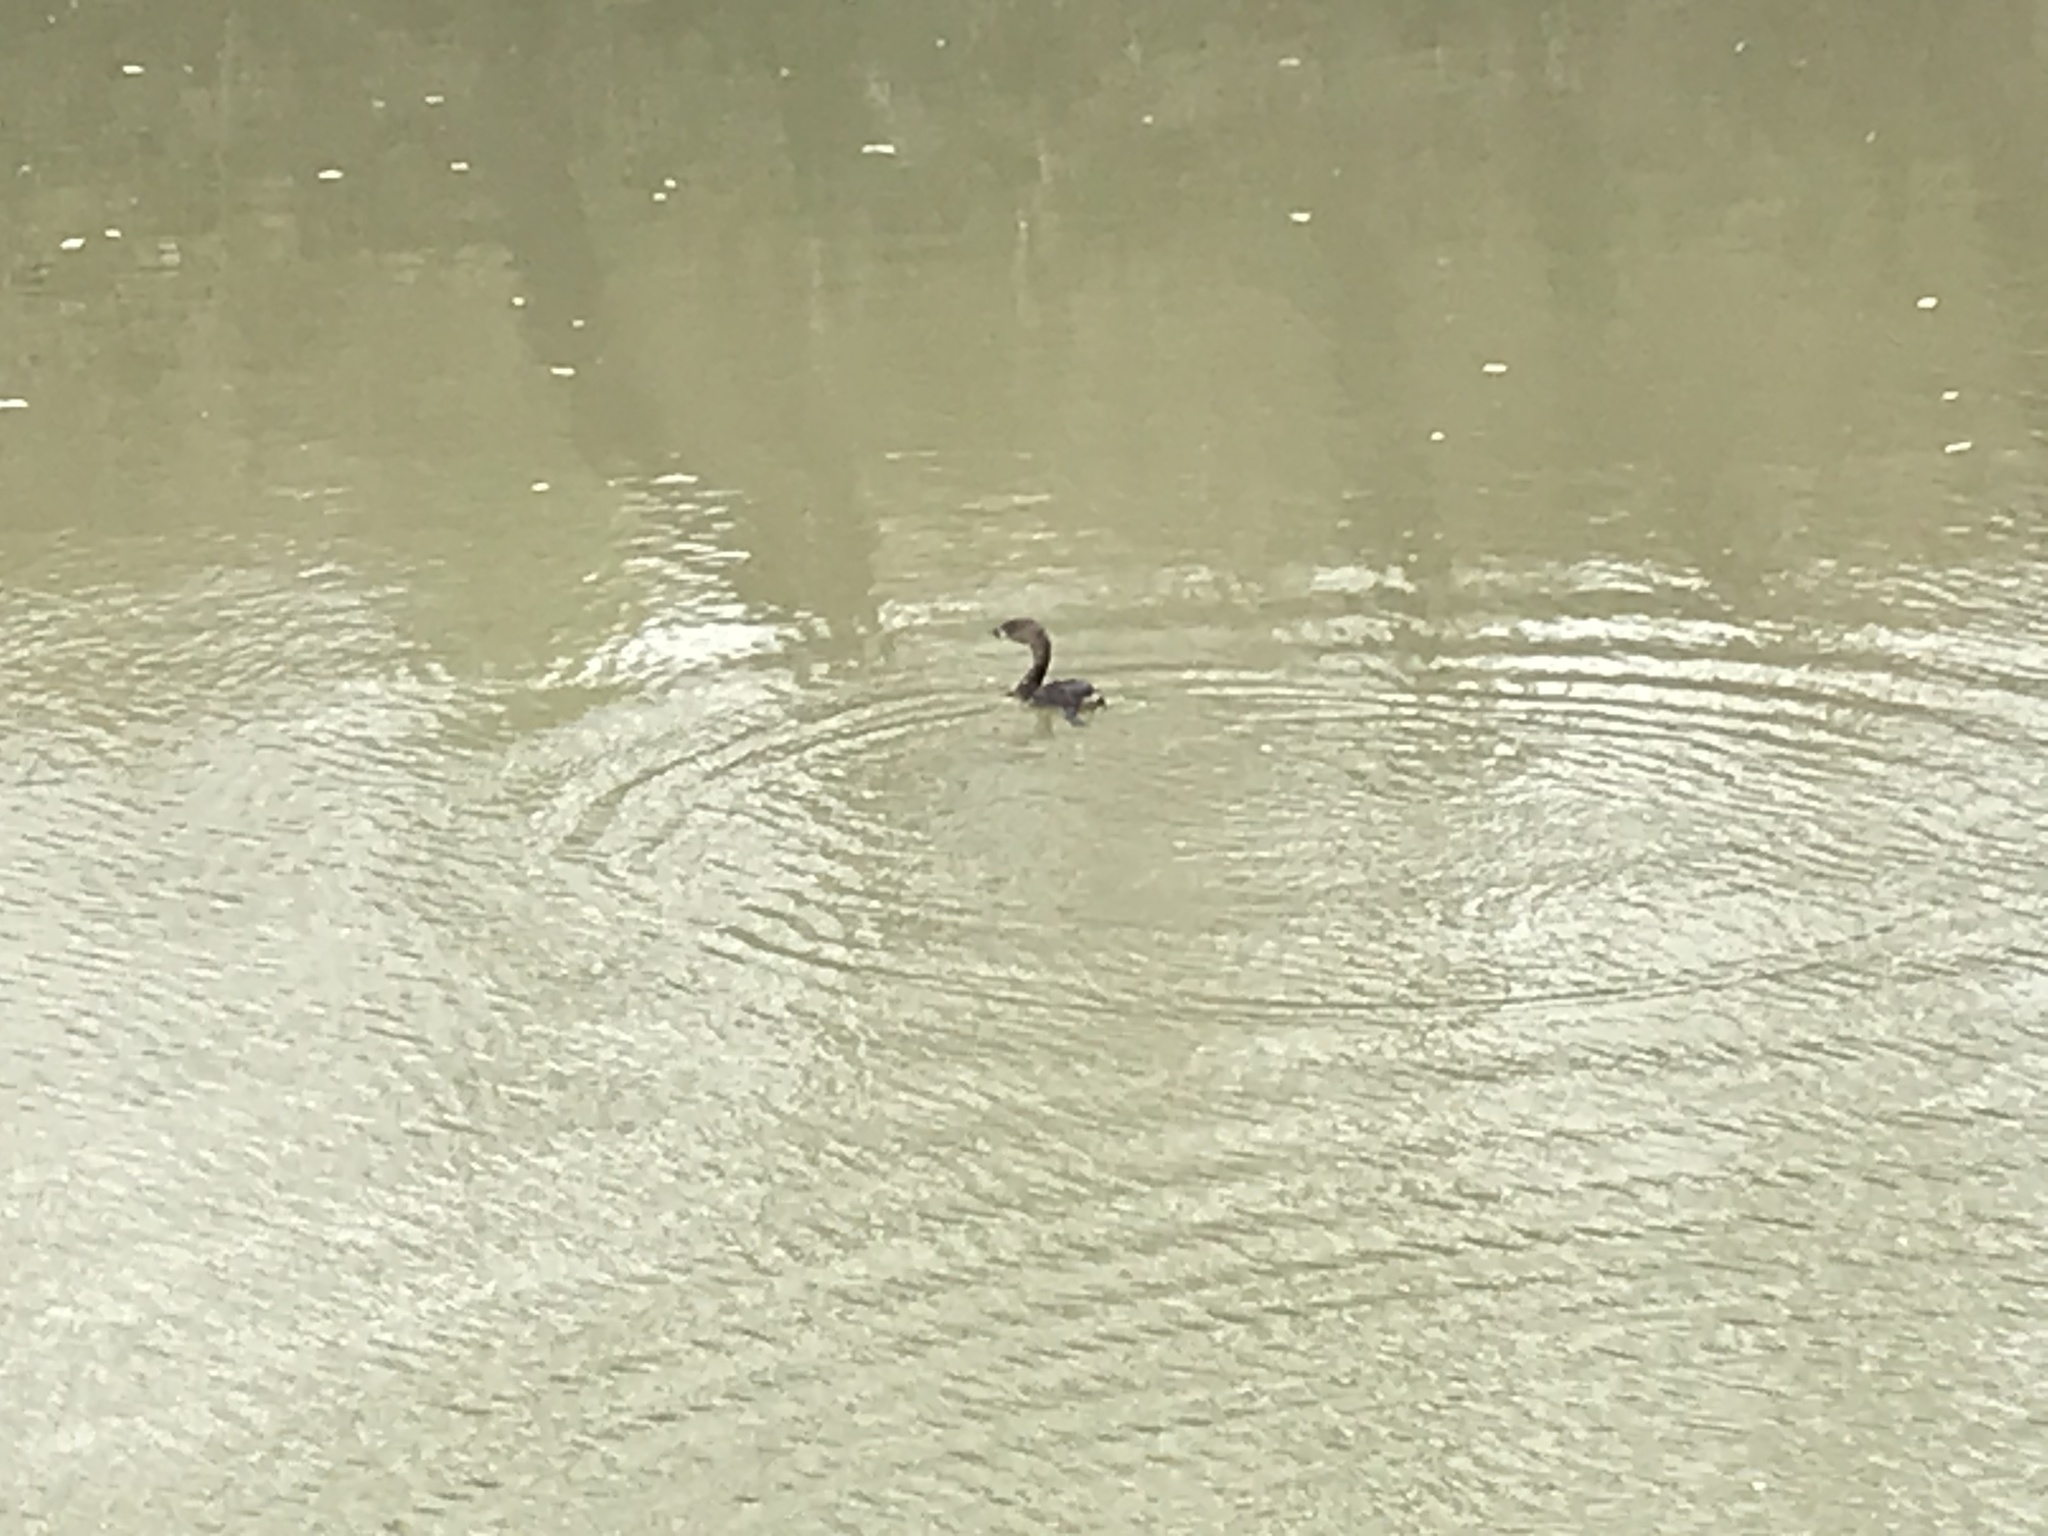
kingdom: Animalia
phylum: Chordata
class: Aves
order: Podicipediformes
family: Podicipedidae
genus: Podilymbus
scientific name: Podilymbus podiceps
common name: Pied-billed grebe
